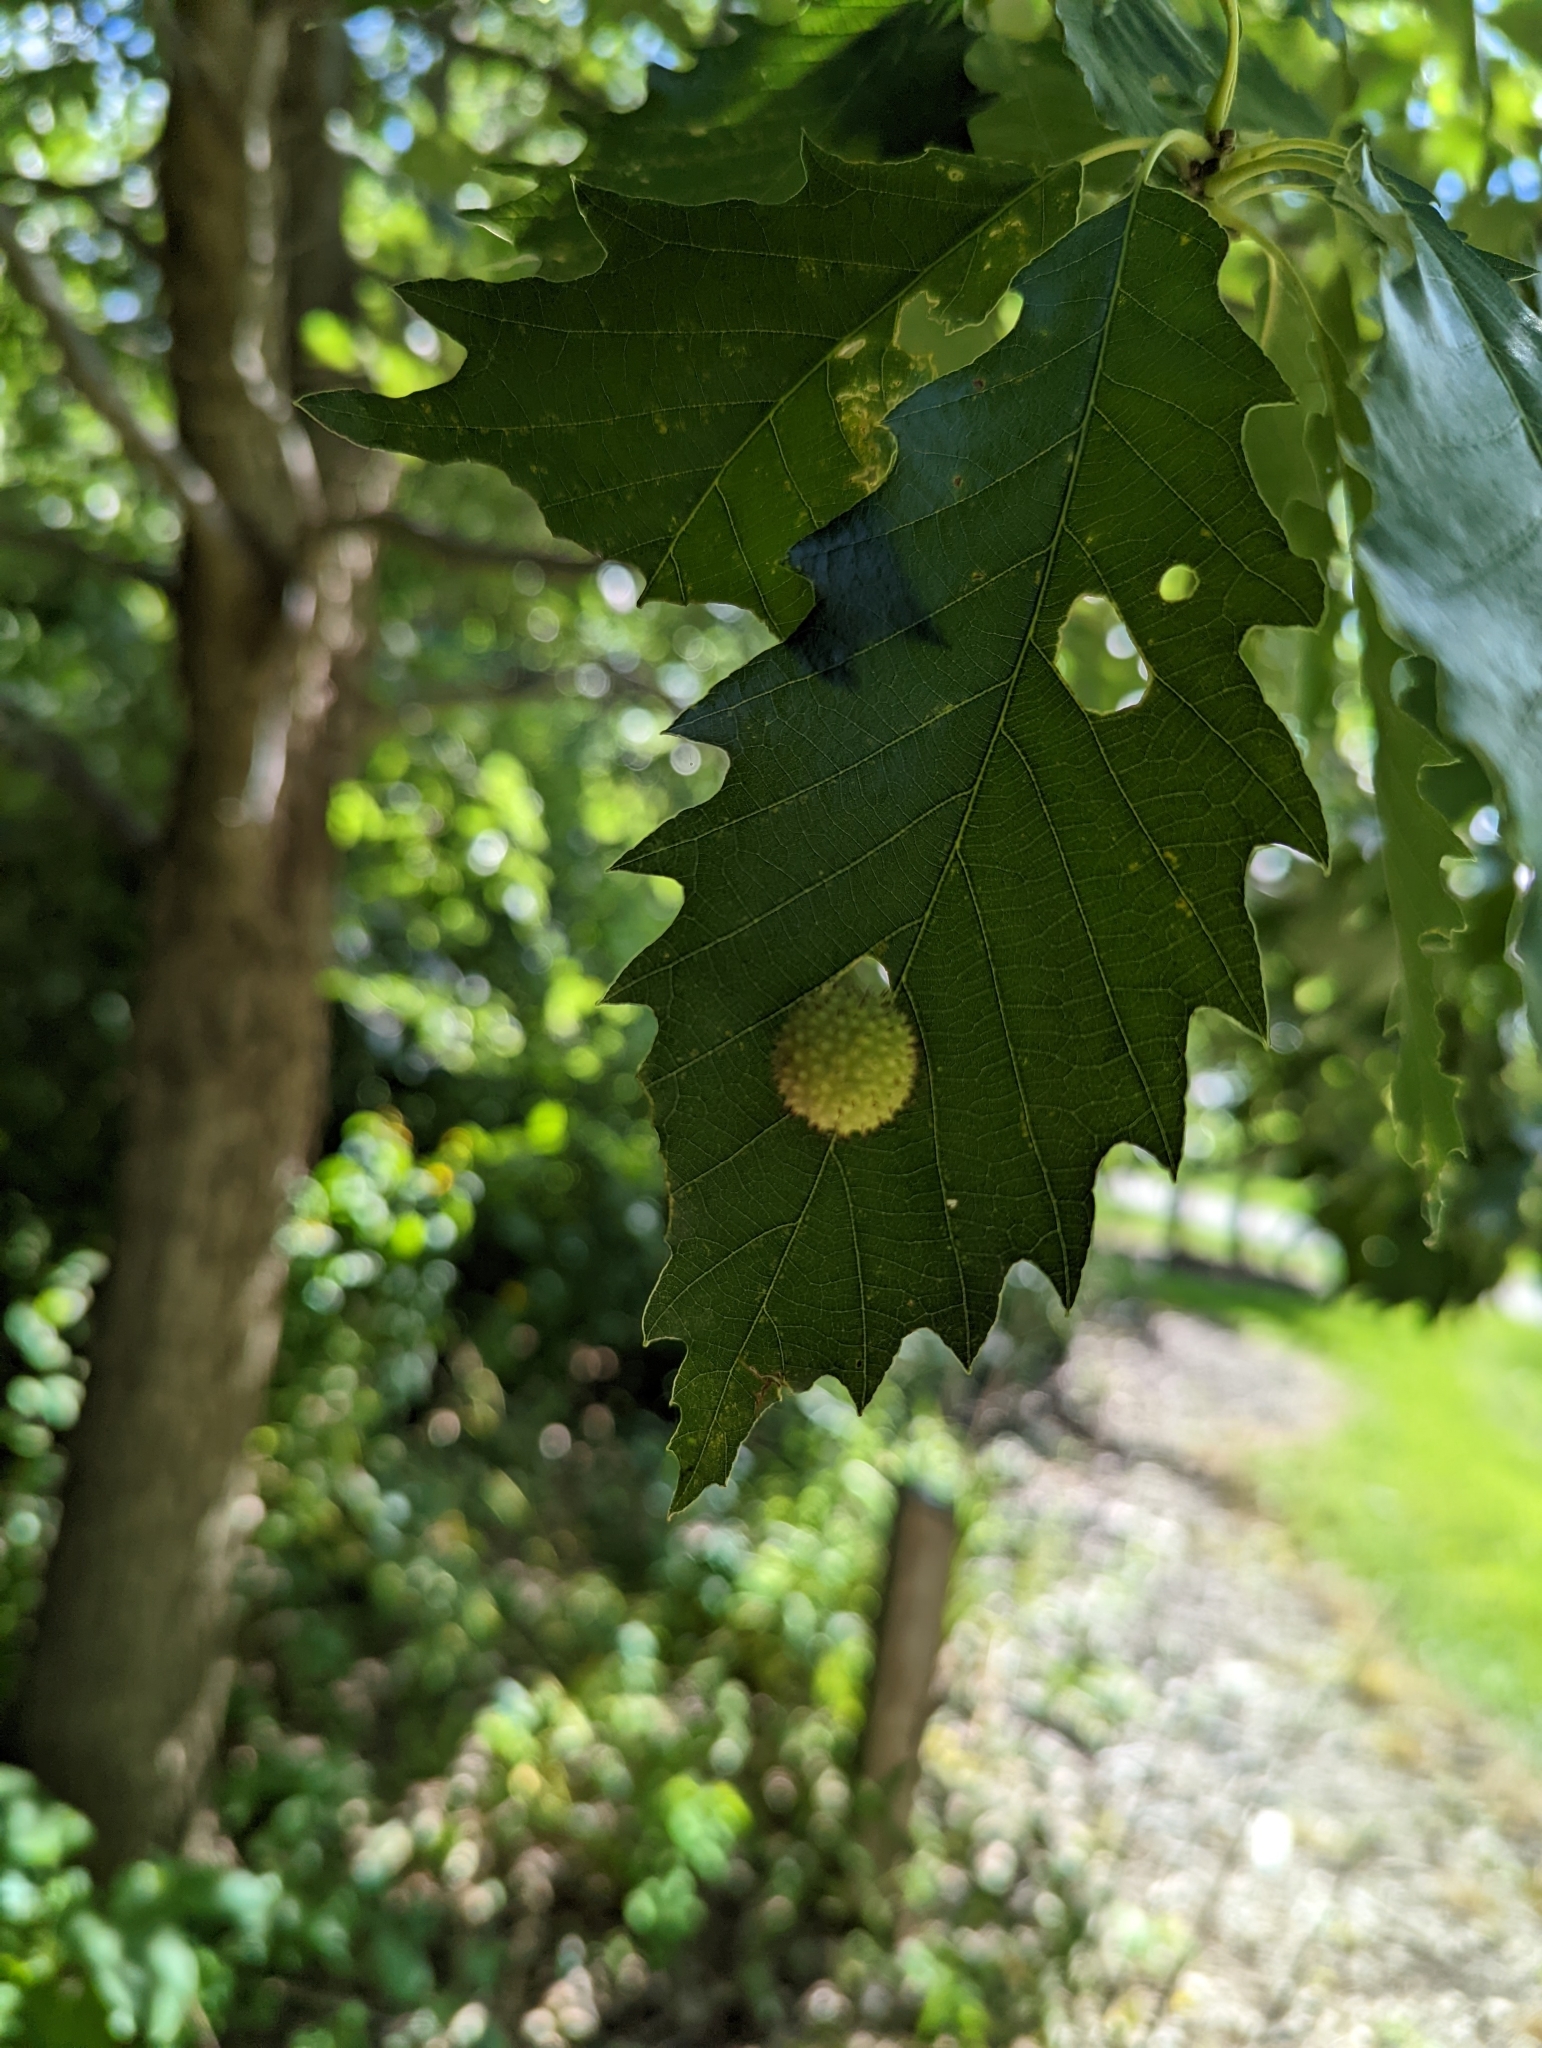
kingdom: Animalia
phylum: Arthropoda
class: Insecta
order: Hymenoptera
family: Cynipidae
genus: Acraspis
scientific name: Acraspis
